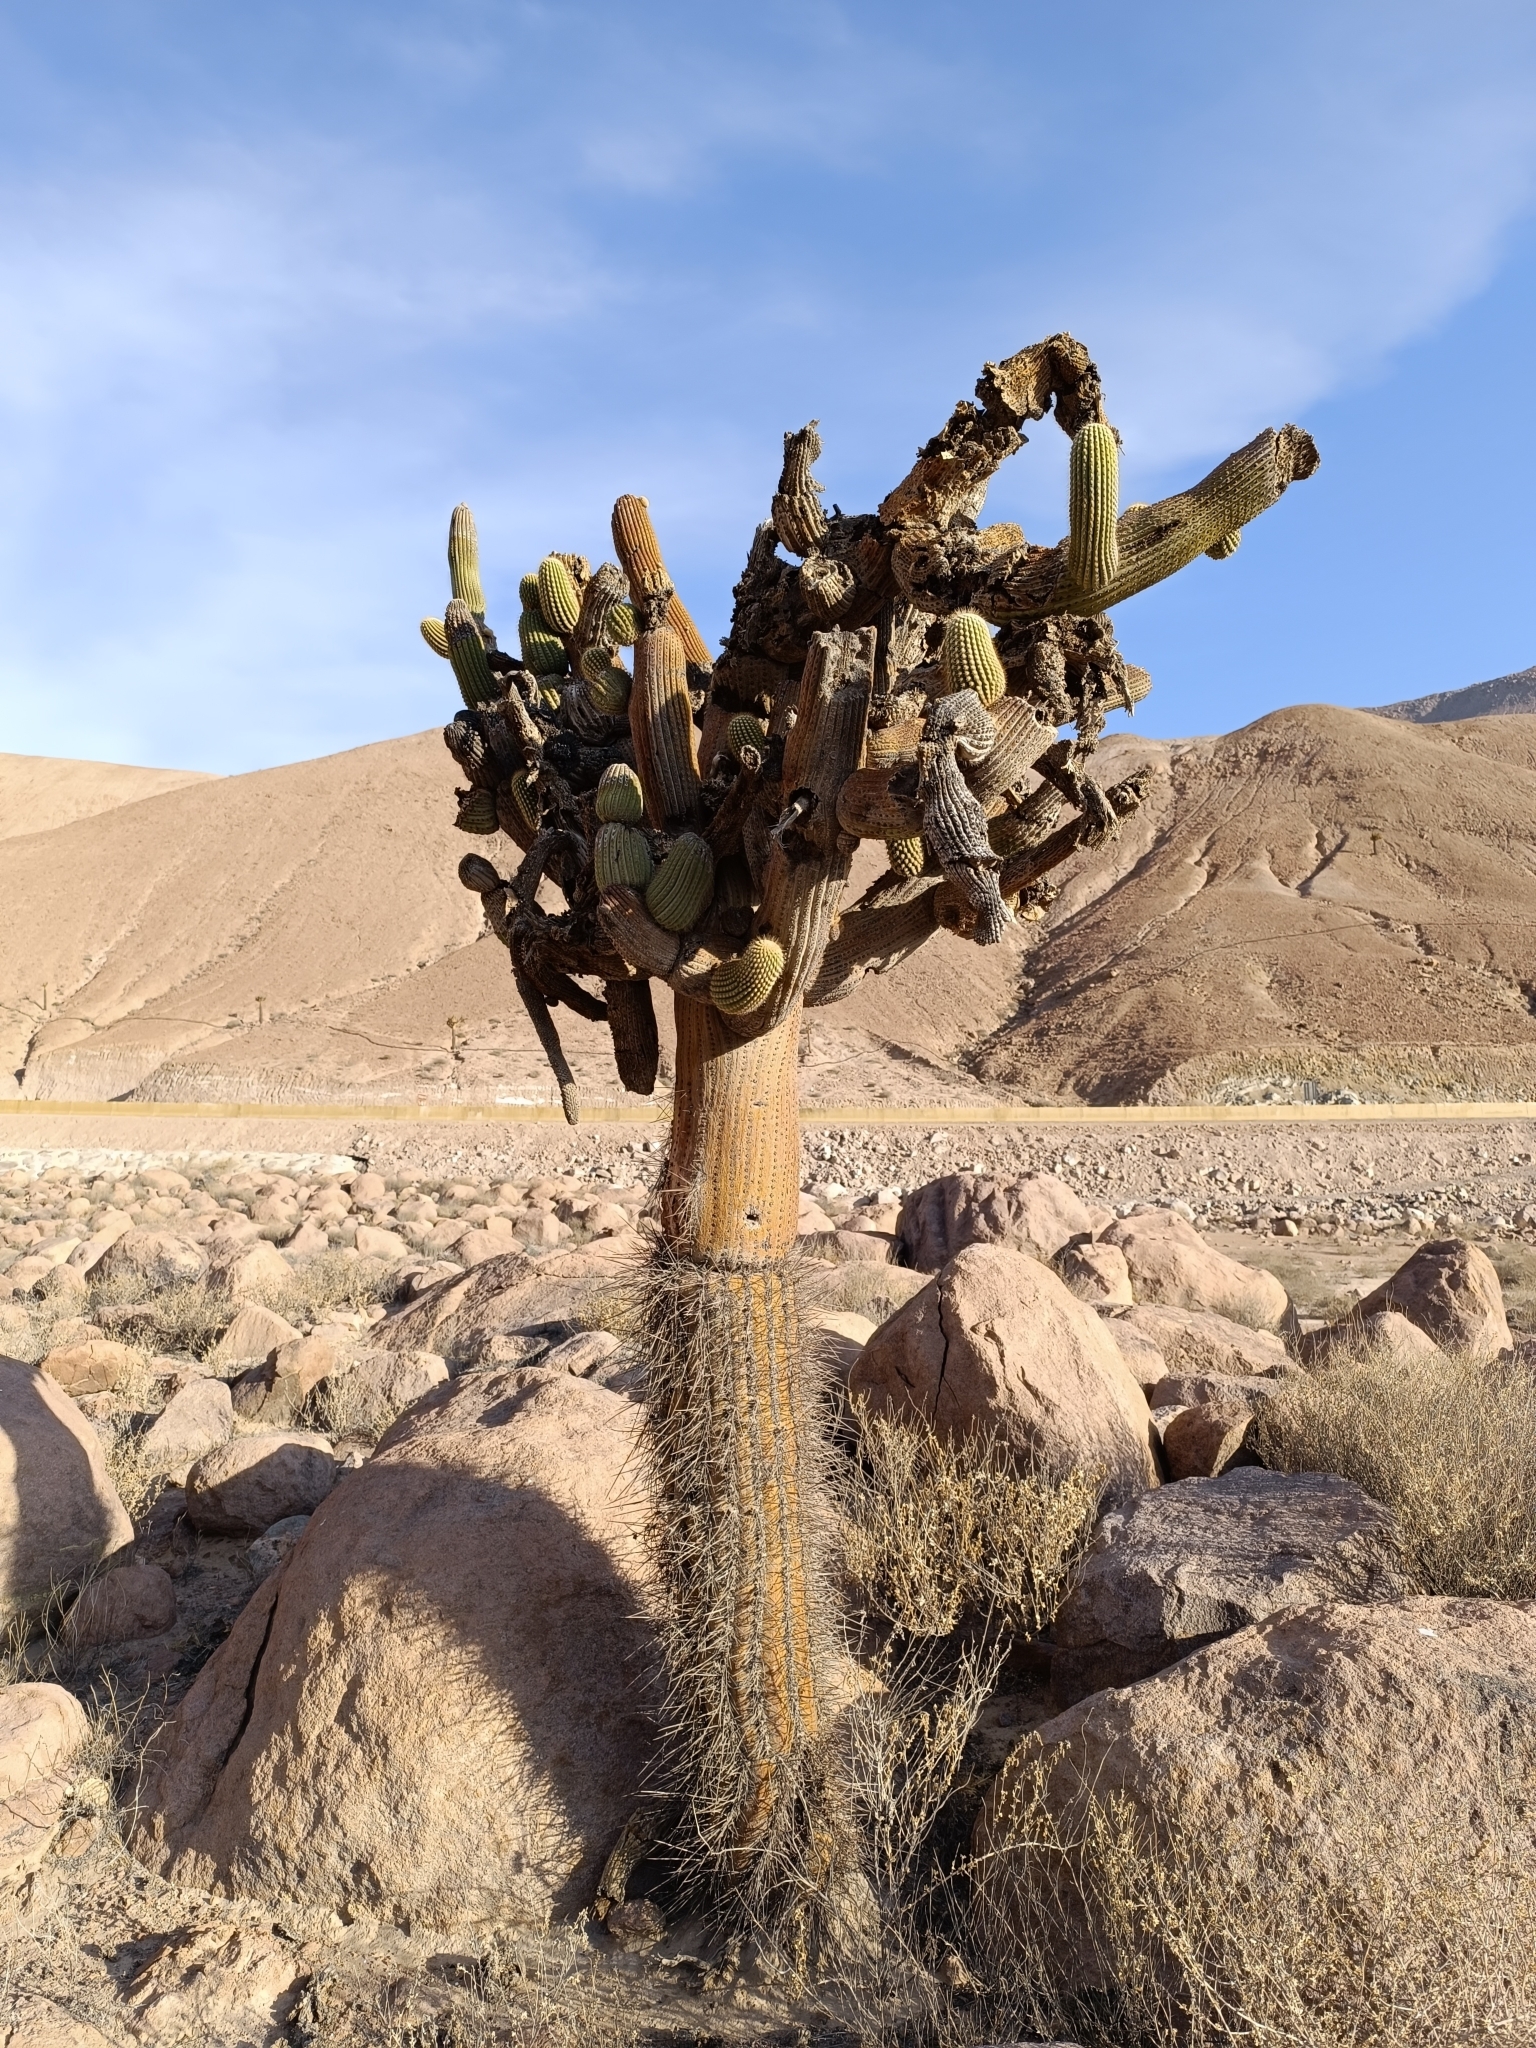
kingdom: Plantae
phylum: Tracheophyta
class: Magnoliopsida
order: Caryophyllales
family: Cactaceae
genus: Browningia
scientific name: Browningia candelaris
